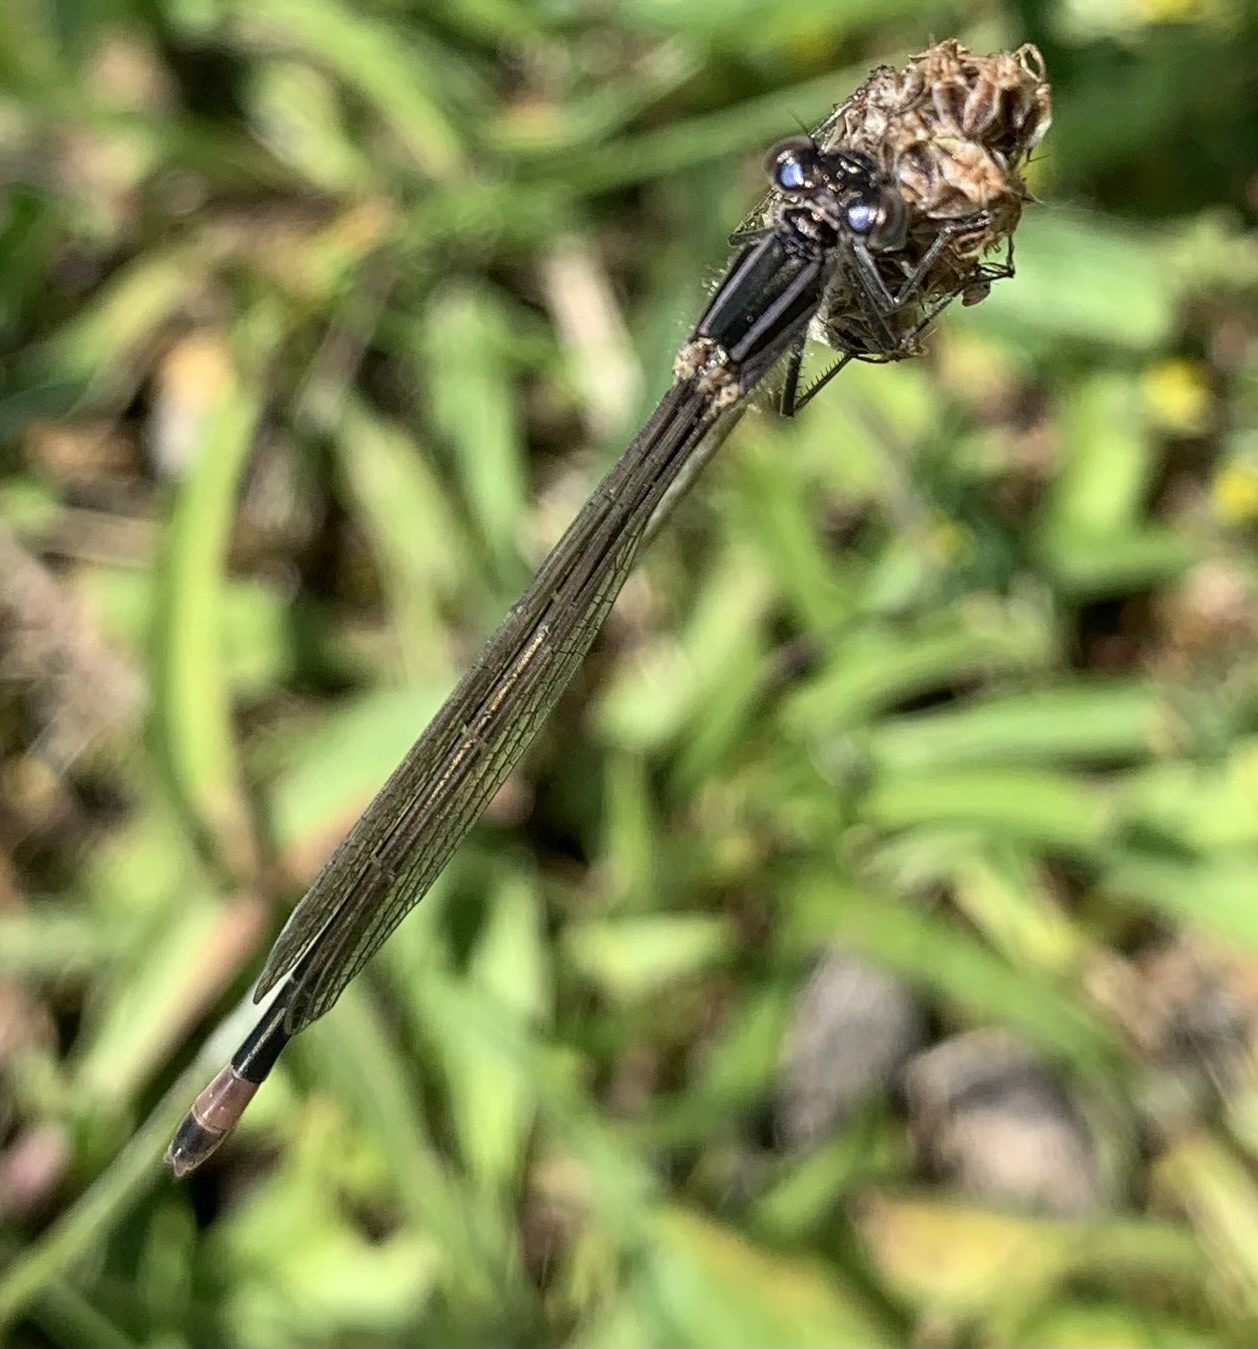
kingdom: Animalia
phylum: Arthropoda
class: Insecta
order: Odonata
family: Coenagrionidae
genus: Ischnura
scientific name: Ischnura elegans
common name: Blue-tailed damselfly
